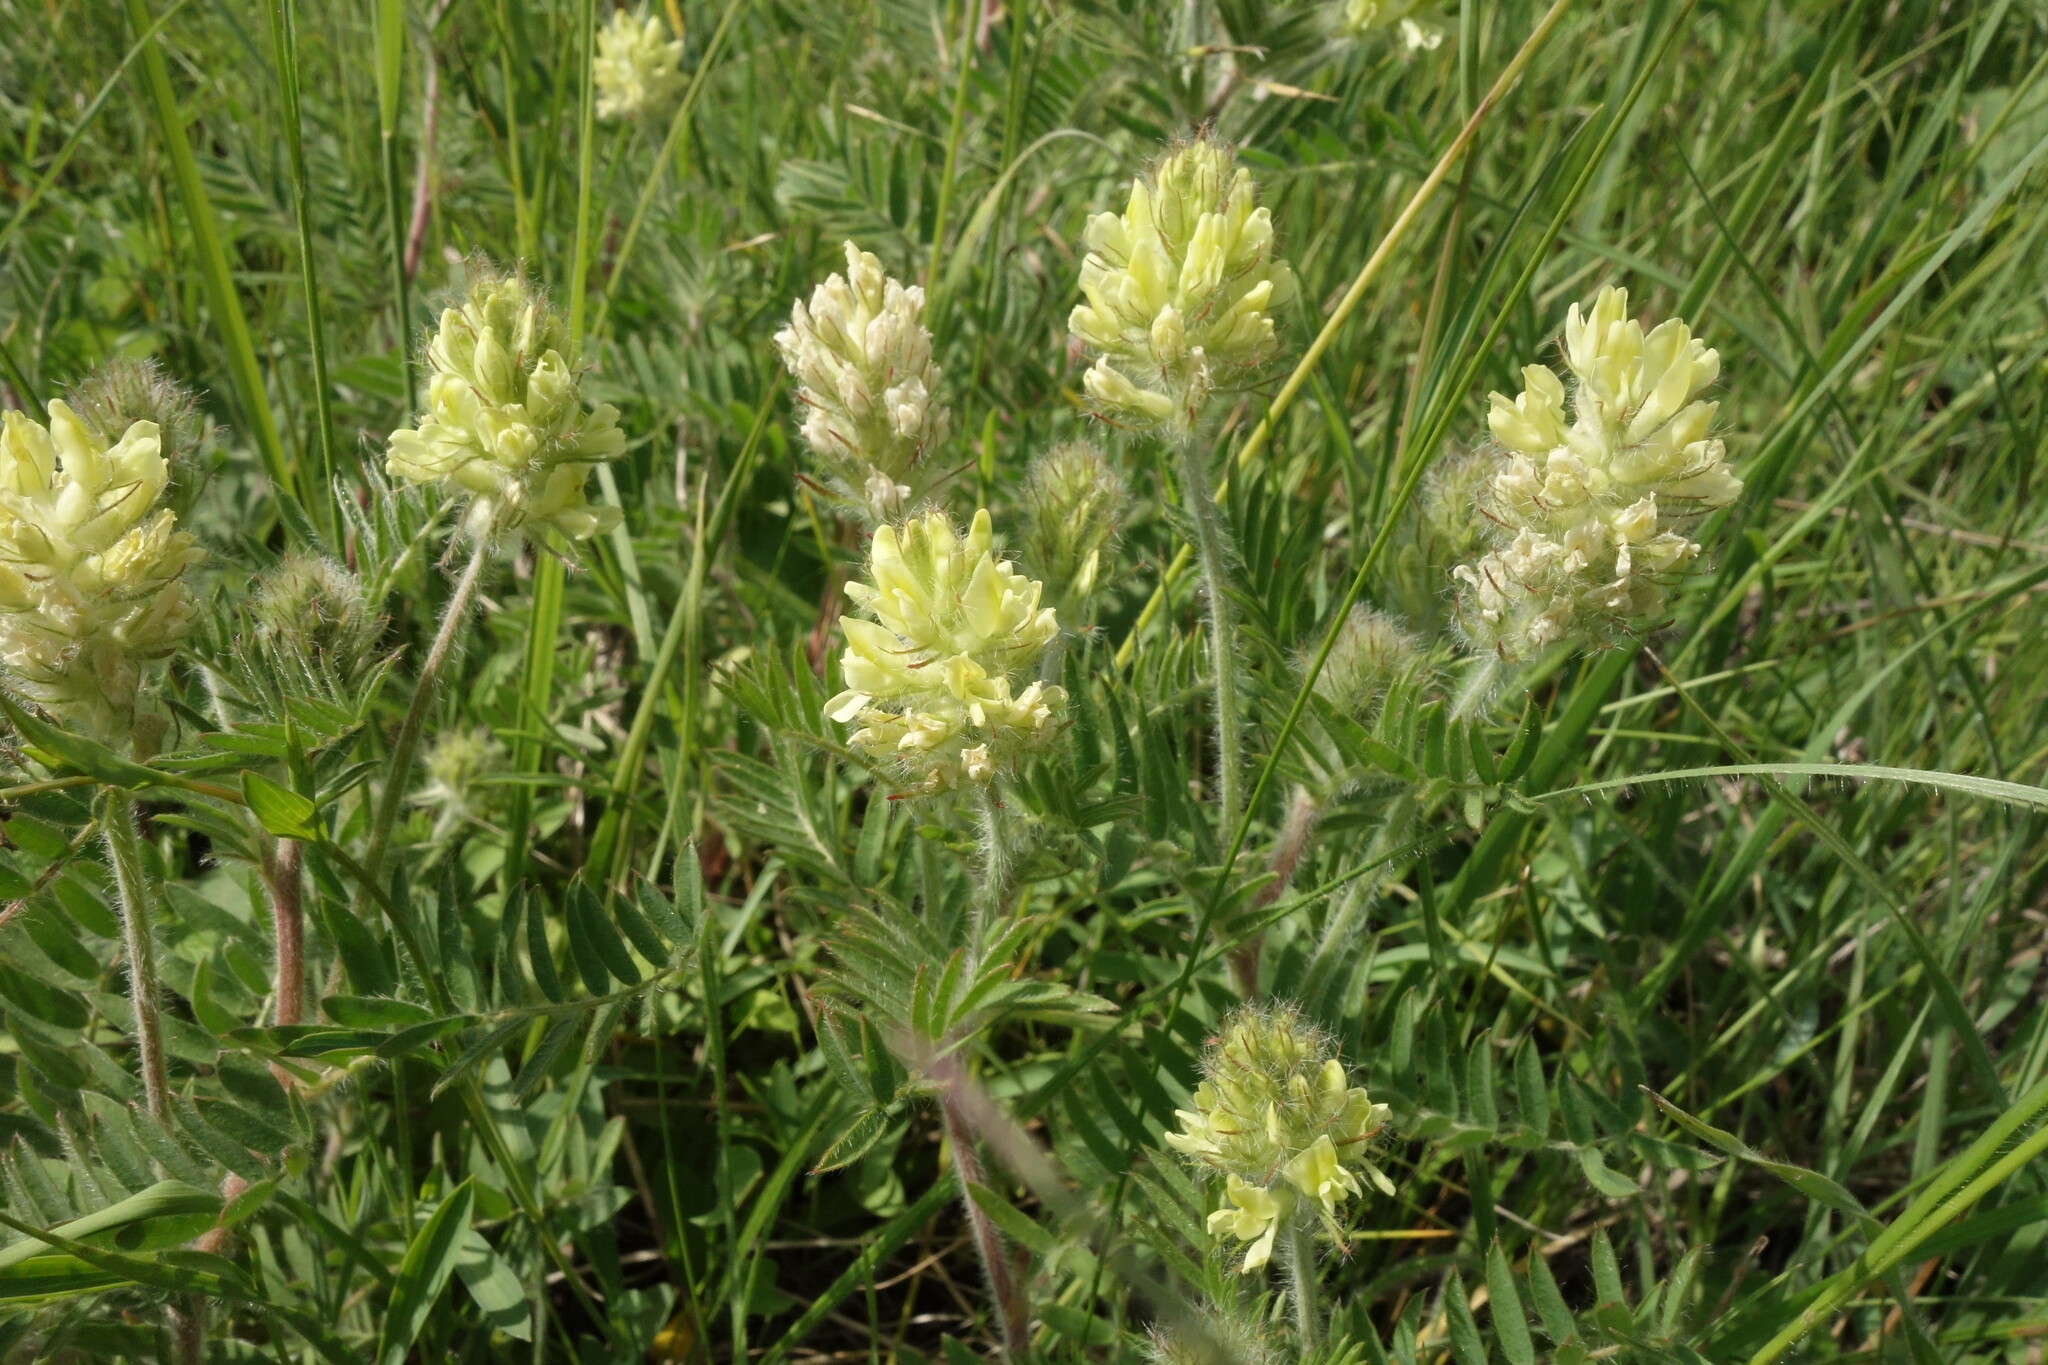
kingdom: Plantae
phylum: Tracheophyta
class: Magnoliopsida
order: Fabales
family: Fabaceae
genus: Oxytropis
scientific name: Oxytropis pilosa
